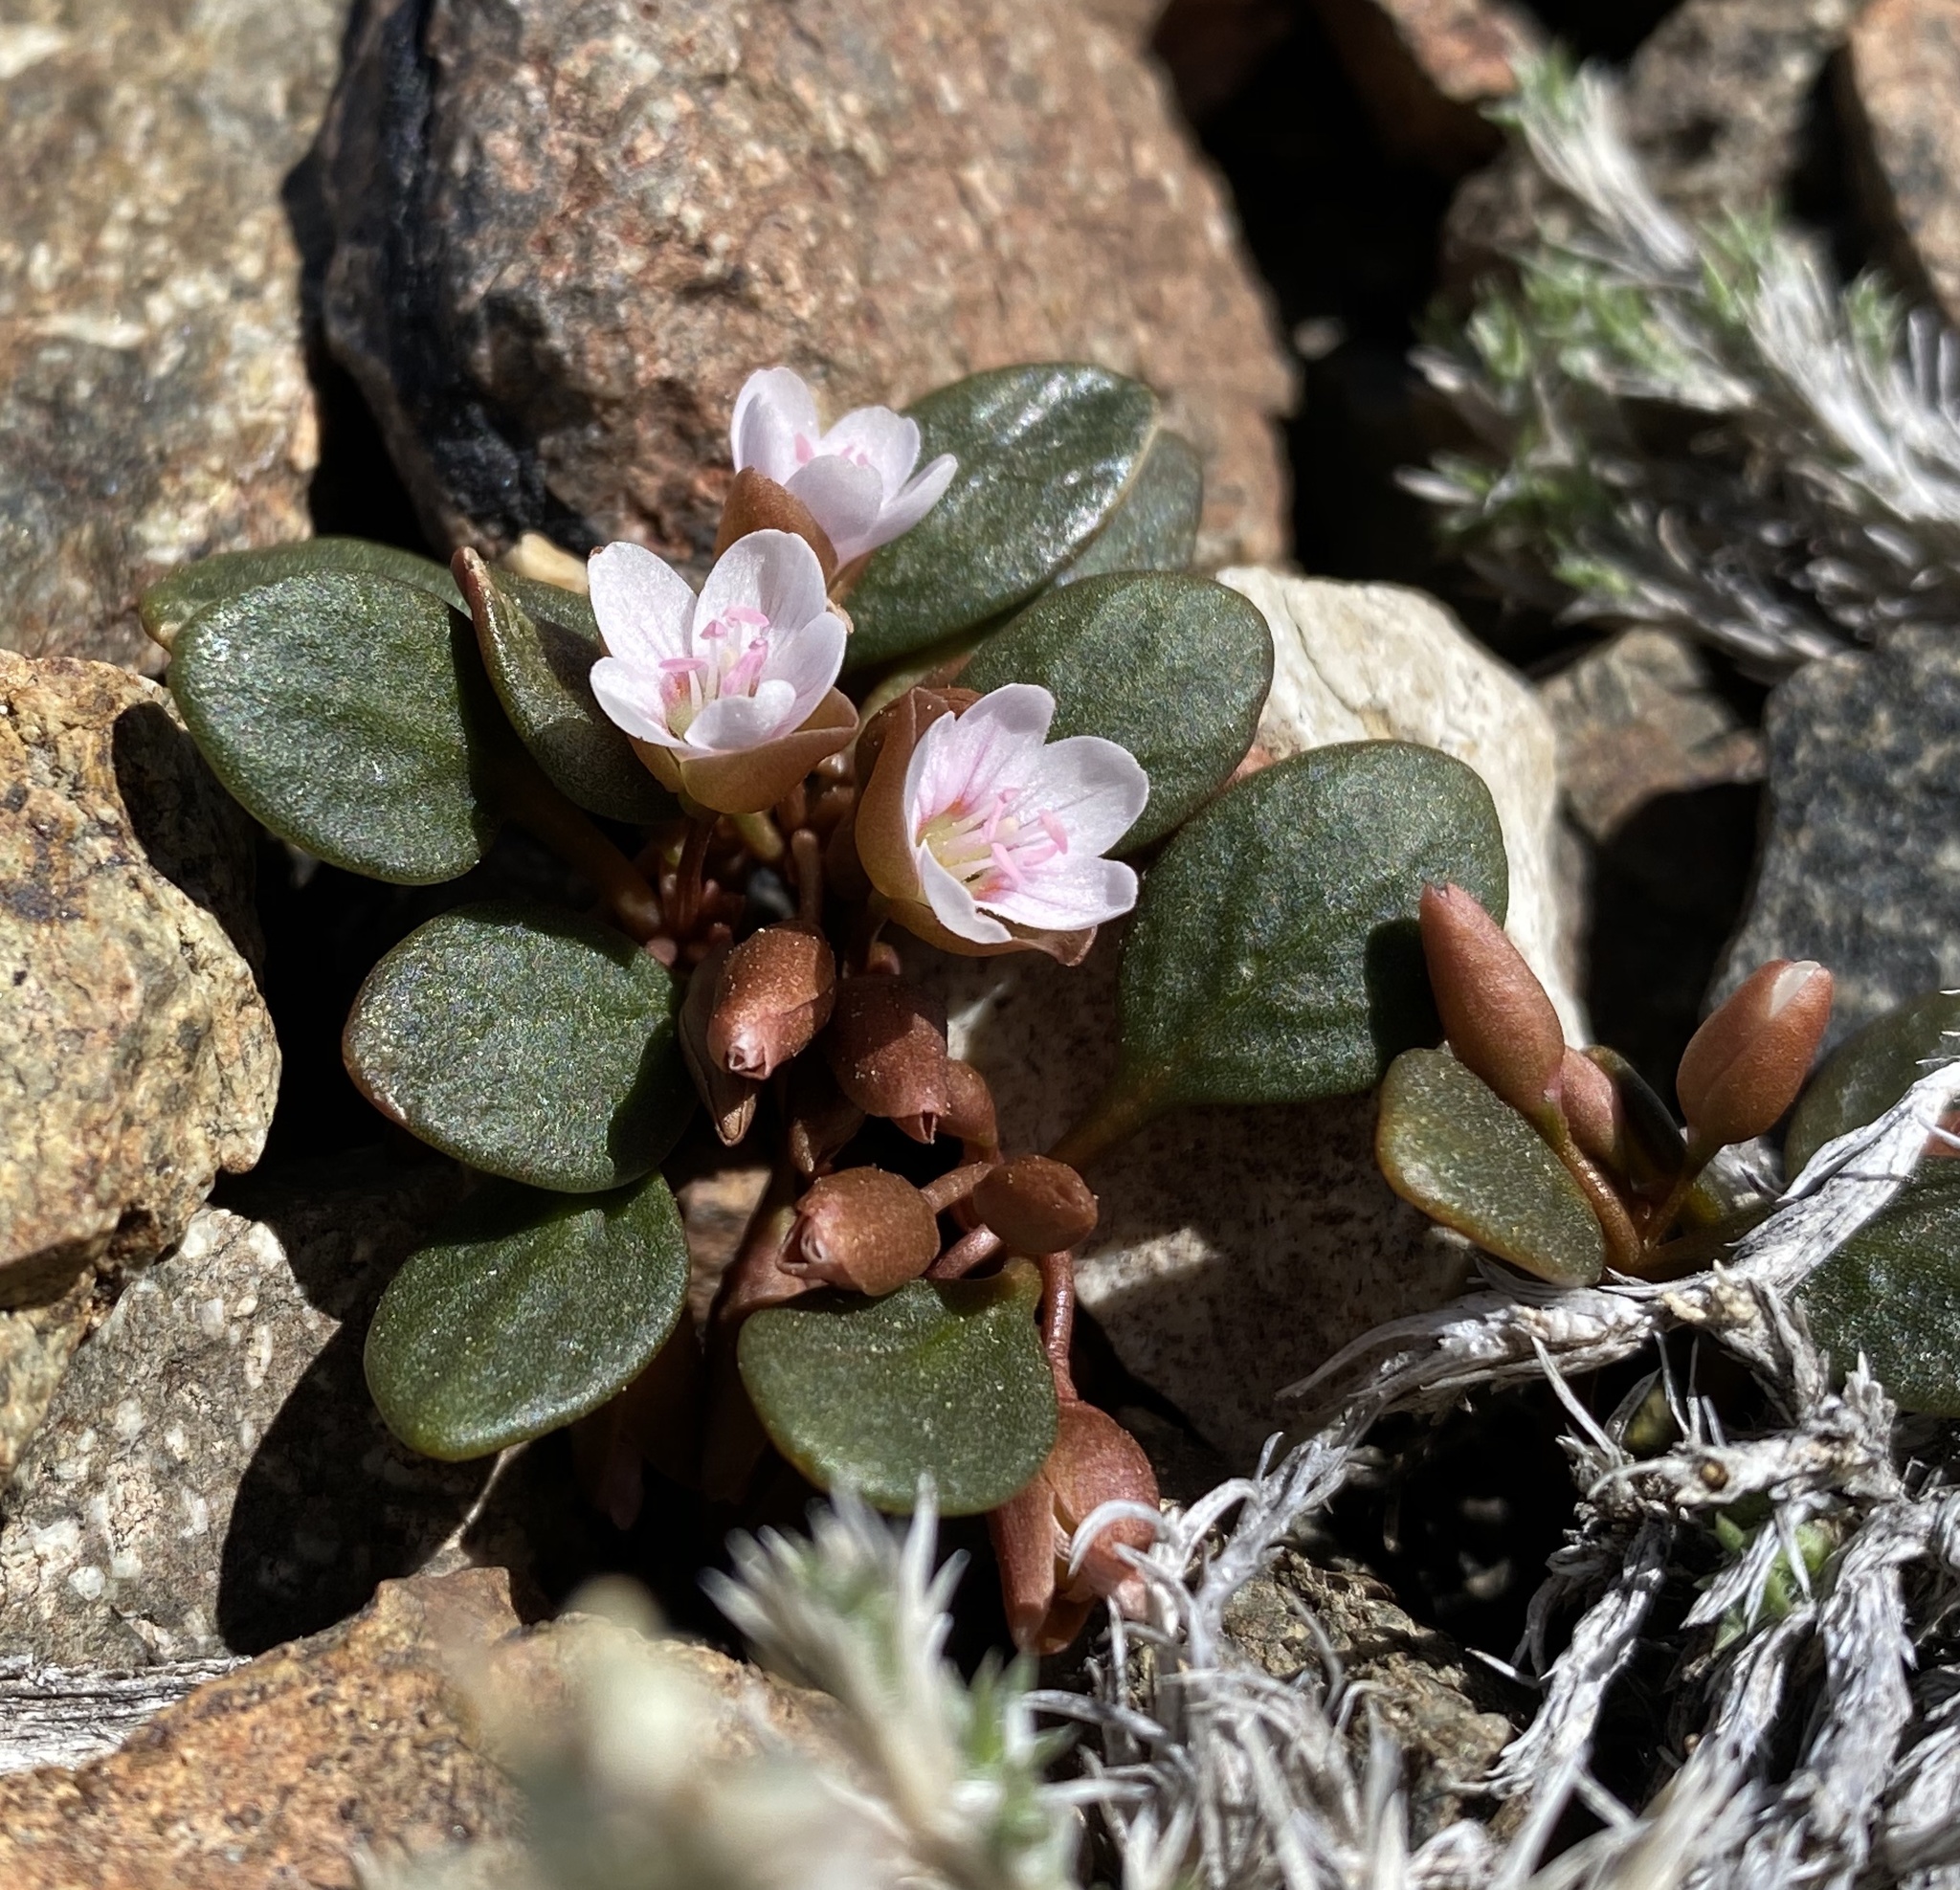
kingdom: Plantae
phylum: Tracheophyta
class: Magnoliopsida
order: Caryophyllales
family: Montiaceae
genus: Claytonia
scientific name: Claytonia umbellata
